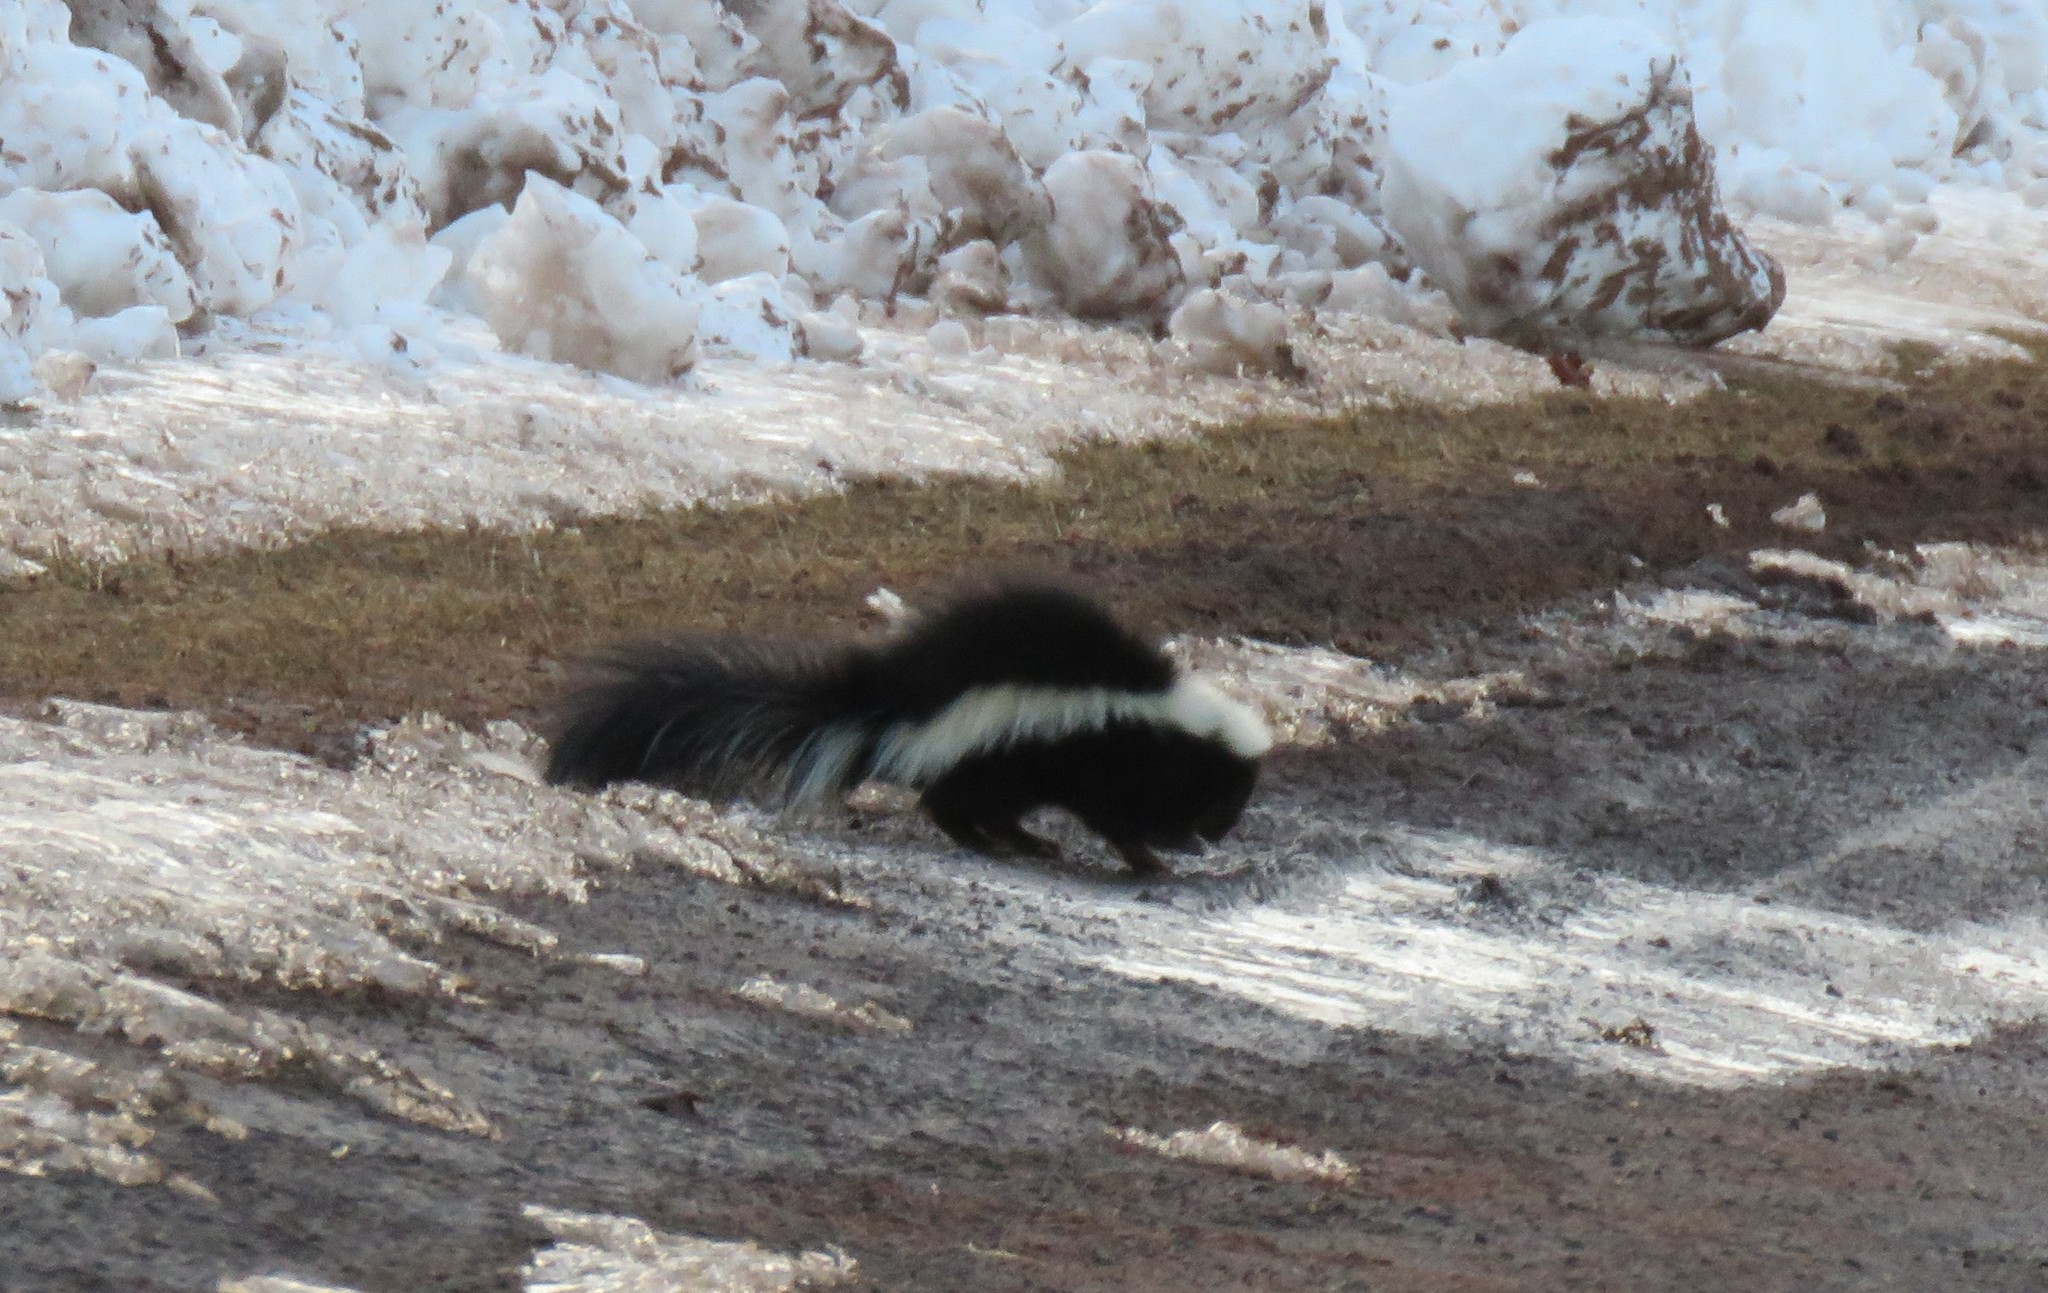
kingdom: Animalia
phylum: Chordata
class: Mammalia
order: Carnivora
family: Mephitidae
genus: Mephitis
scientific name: Mephitis mephitis
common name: Striped skunk
